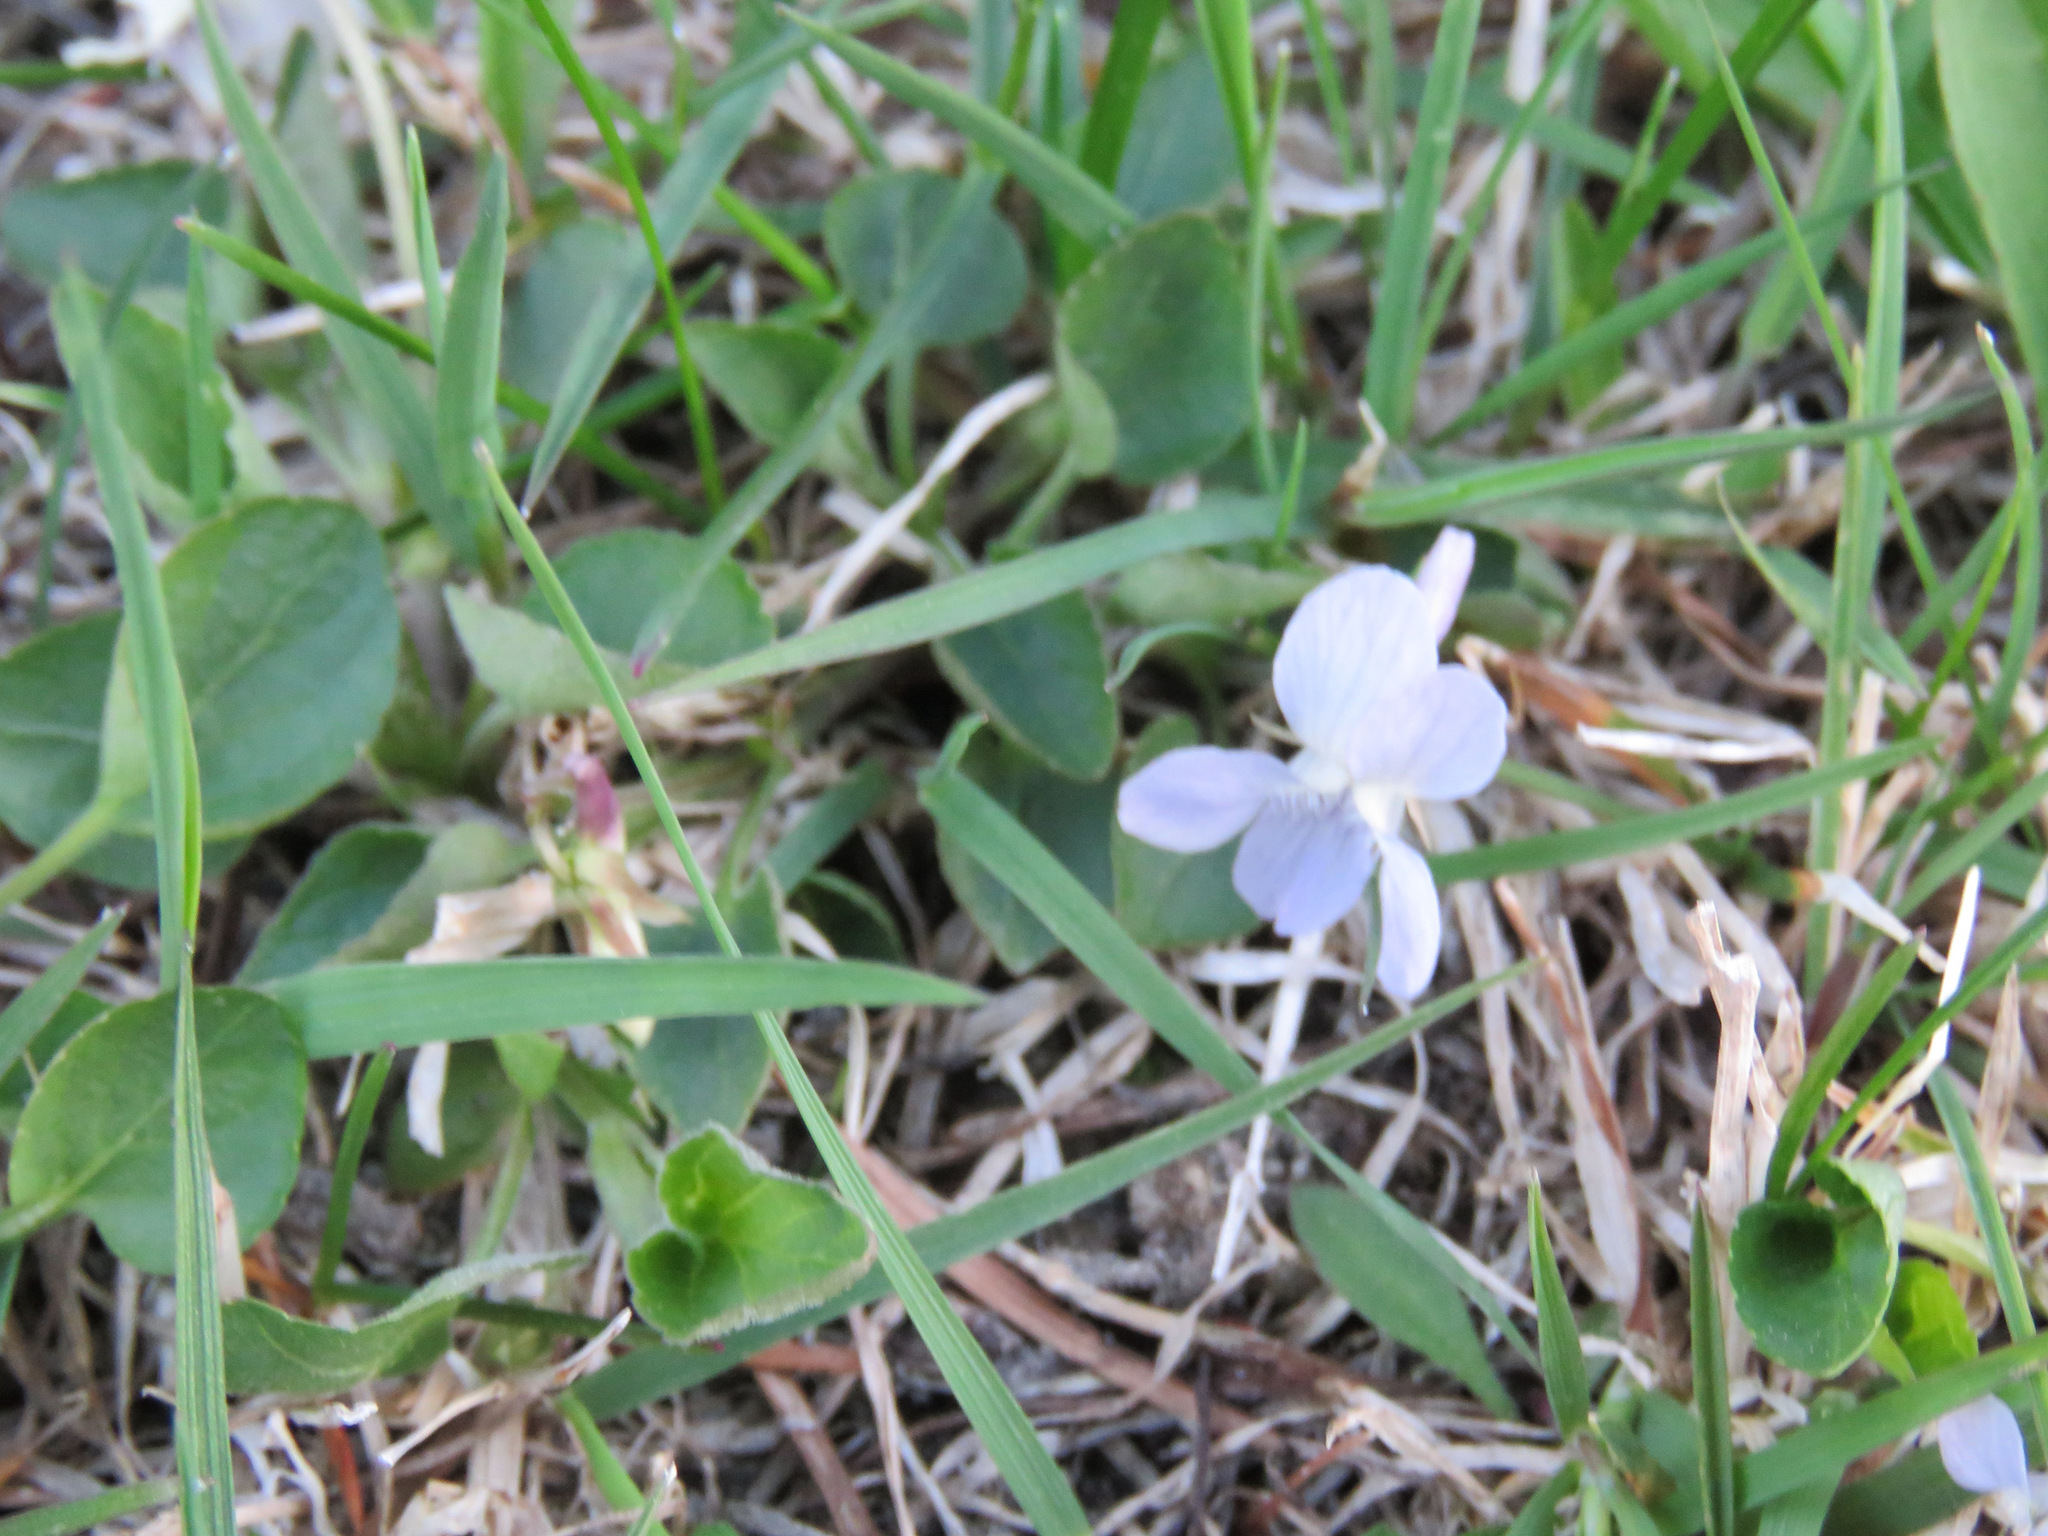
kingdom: Plantae
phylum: Tracheophyta
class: Magnoliopsida
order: Malpighiales
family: Violaceae
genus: Viola
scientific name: Viola adunca
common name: Sand violet
